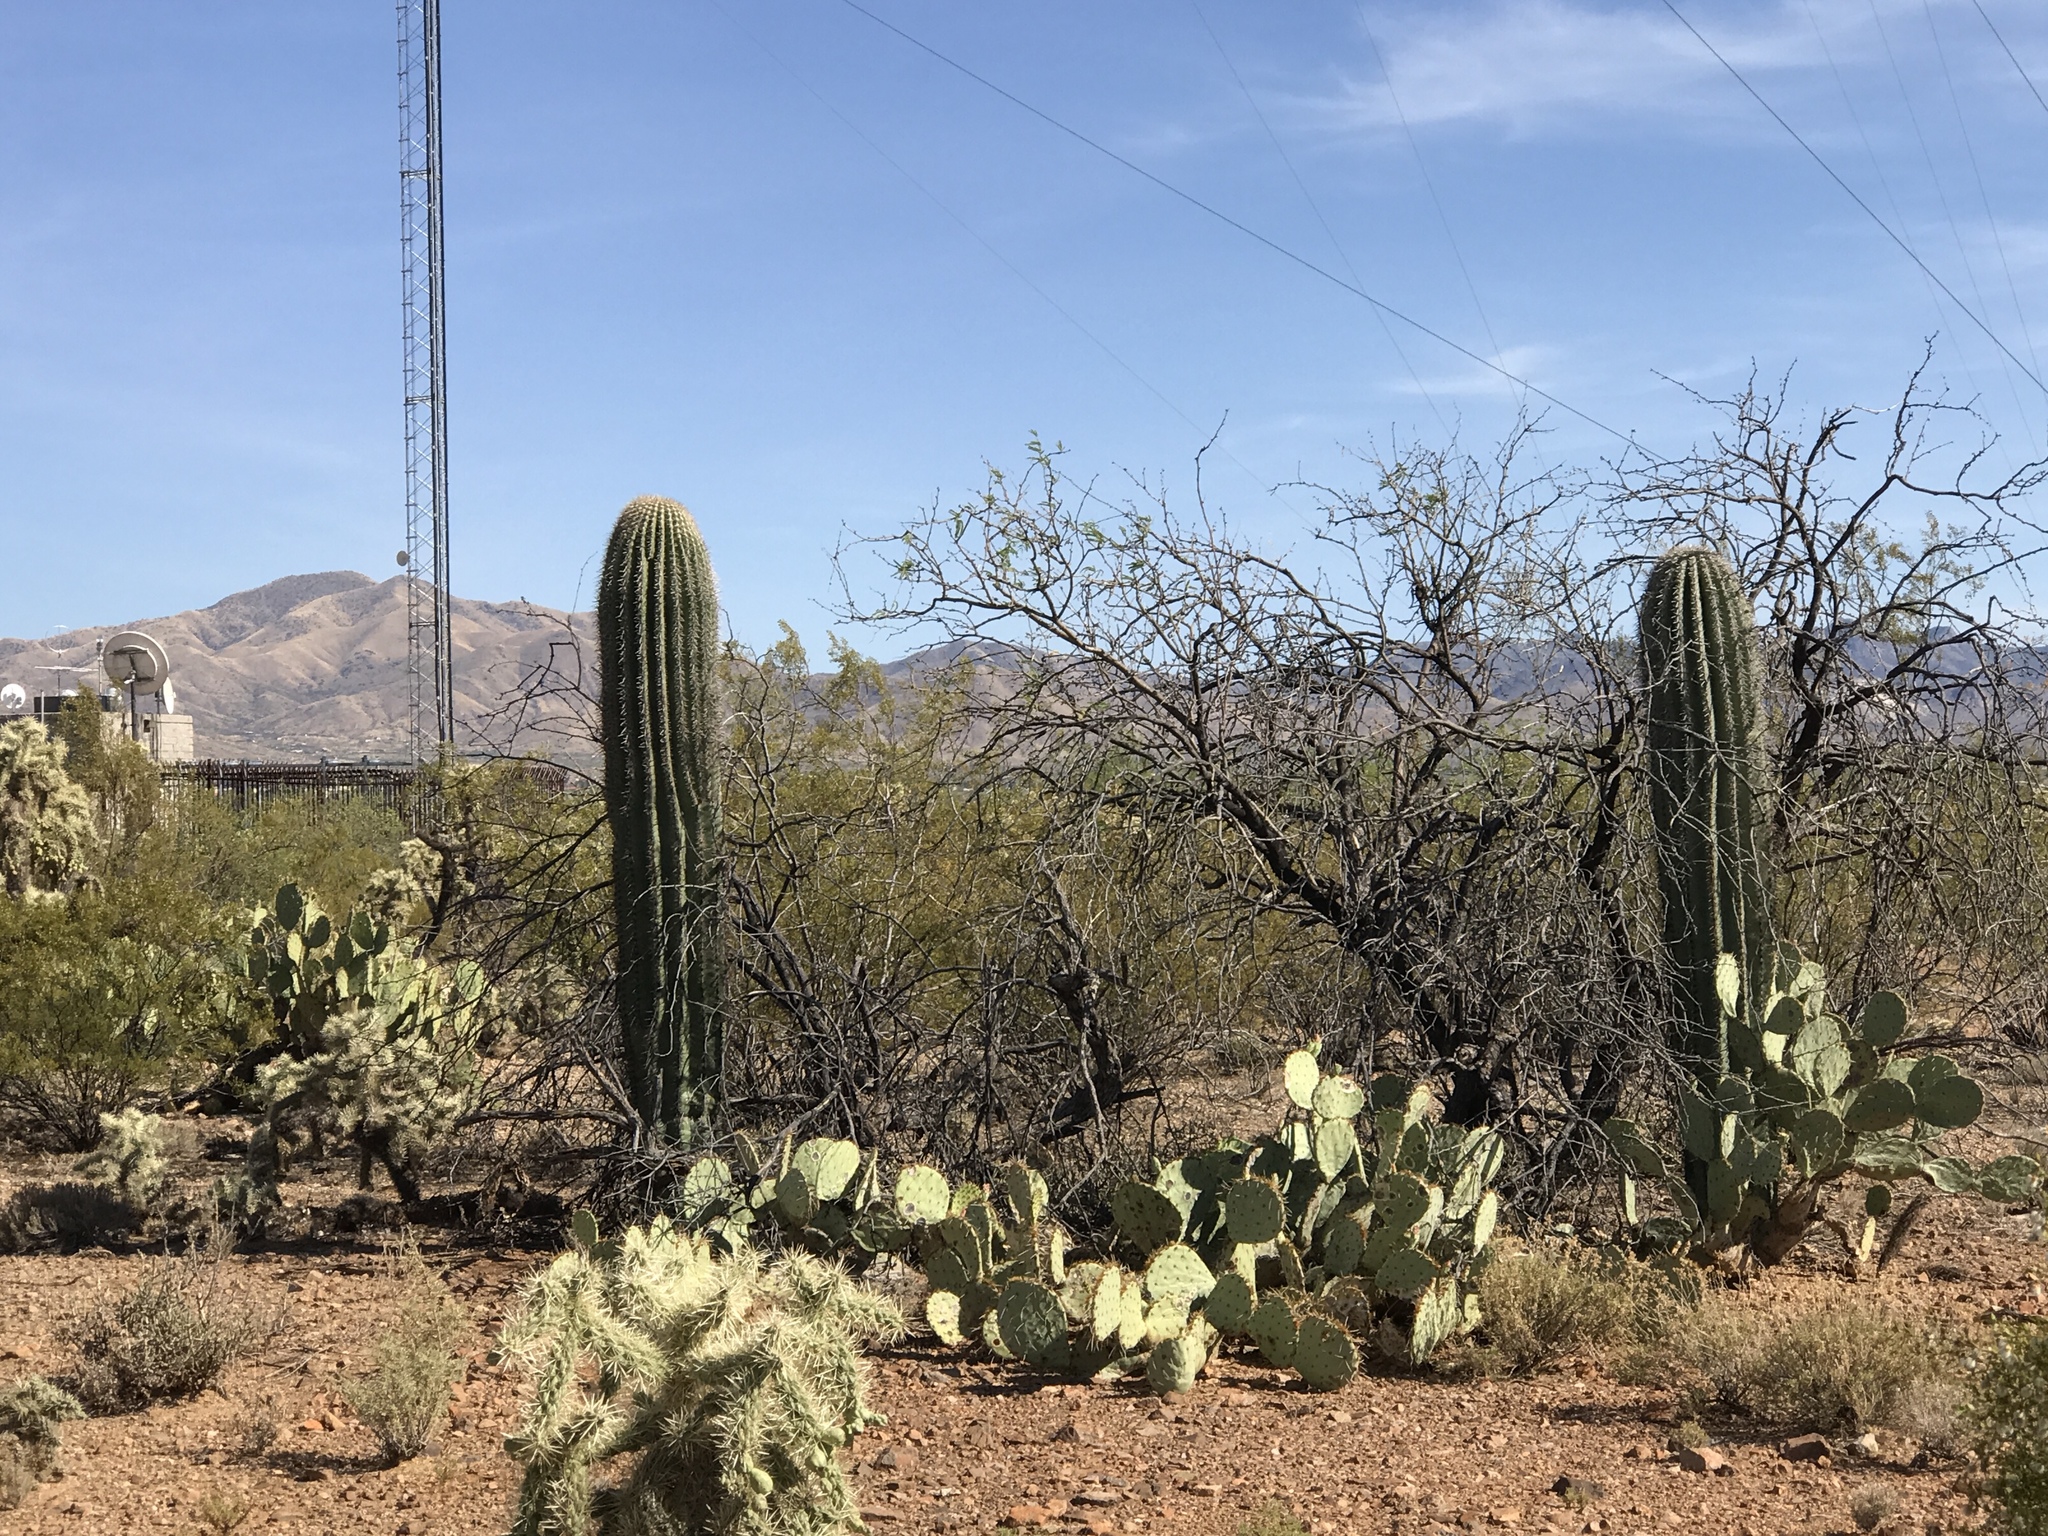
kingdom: Plantae
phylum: Tracheophyta
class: Magnoliopsida
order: Caryophyllales
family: Cactaceae
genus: Carnegiea
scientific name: Carnegiea gigantea
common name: Saguaro
